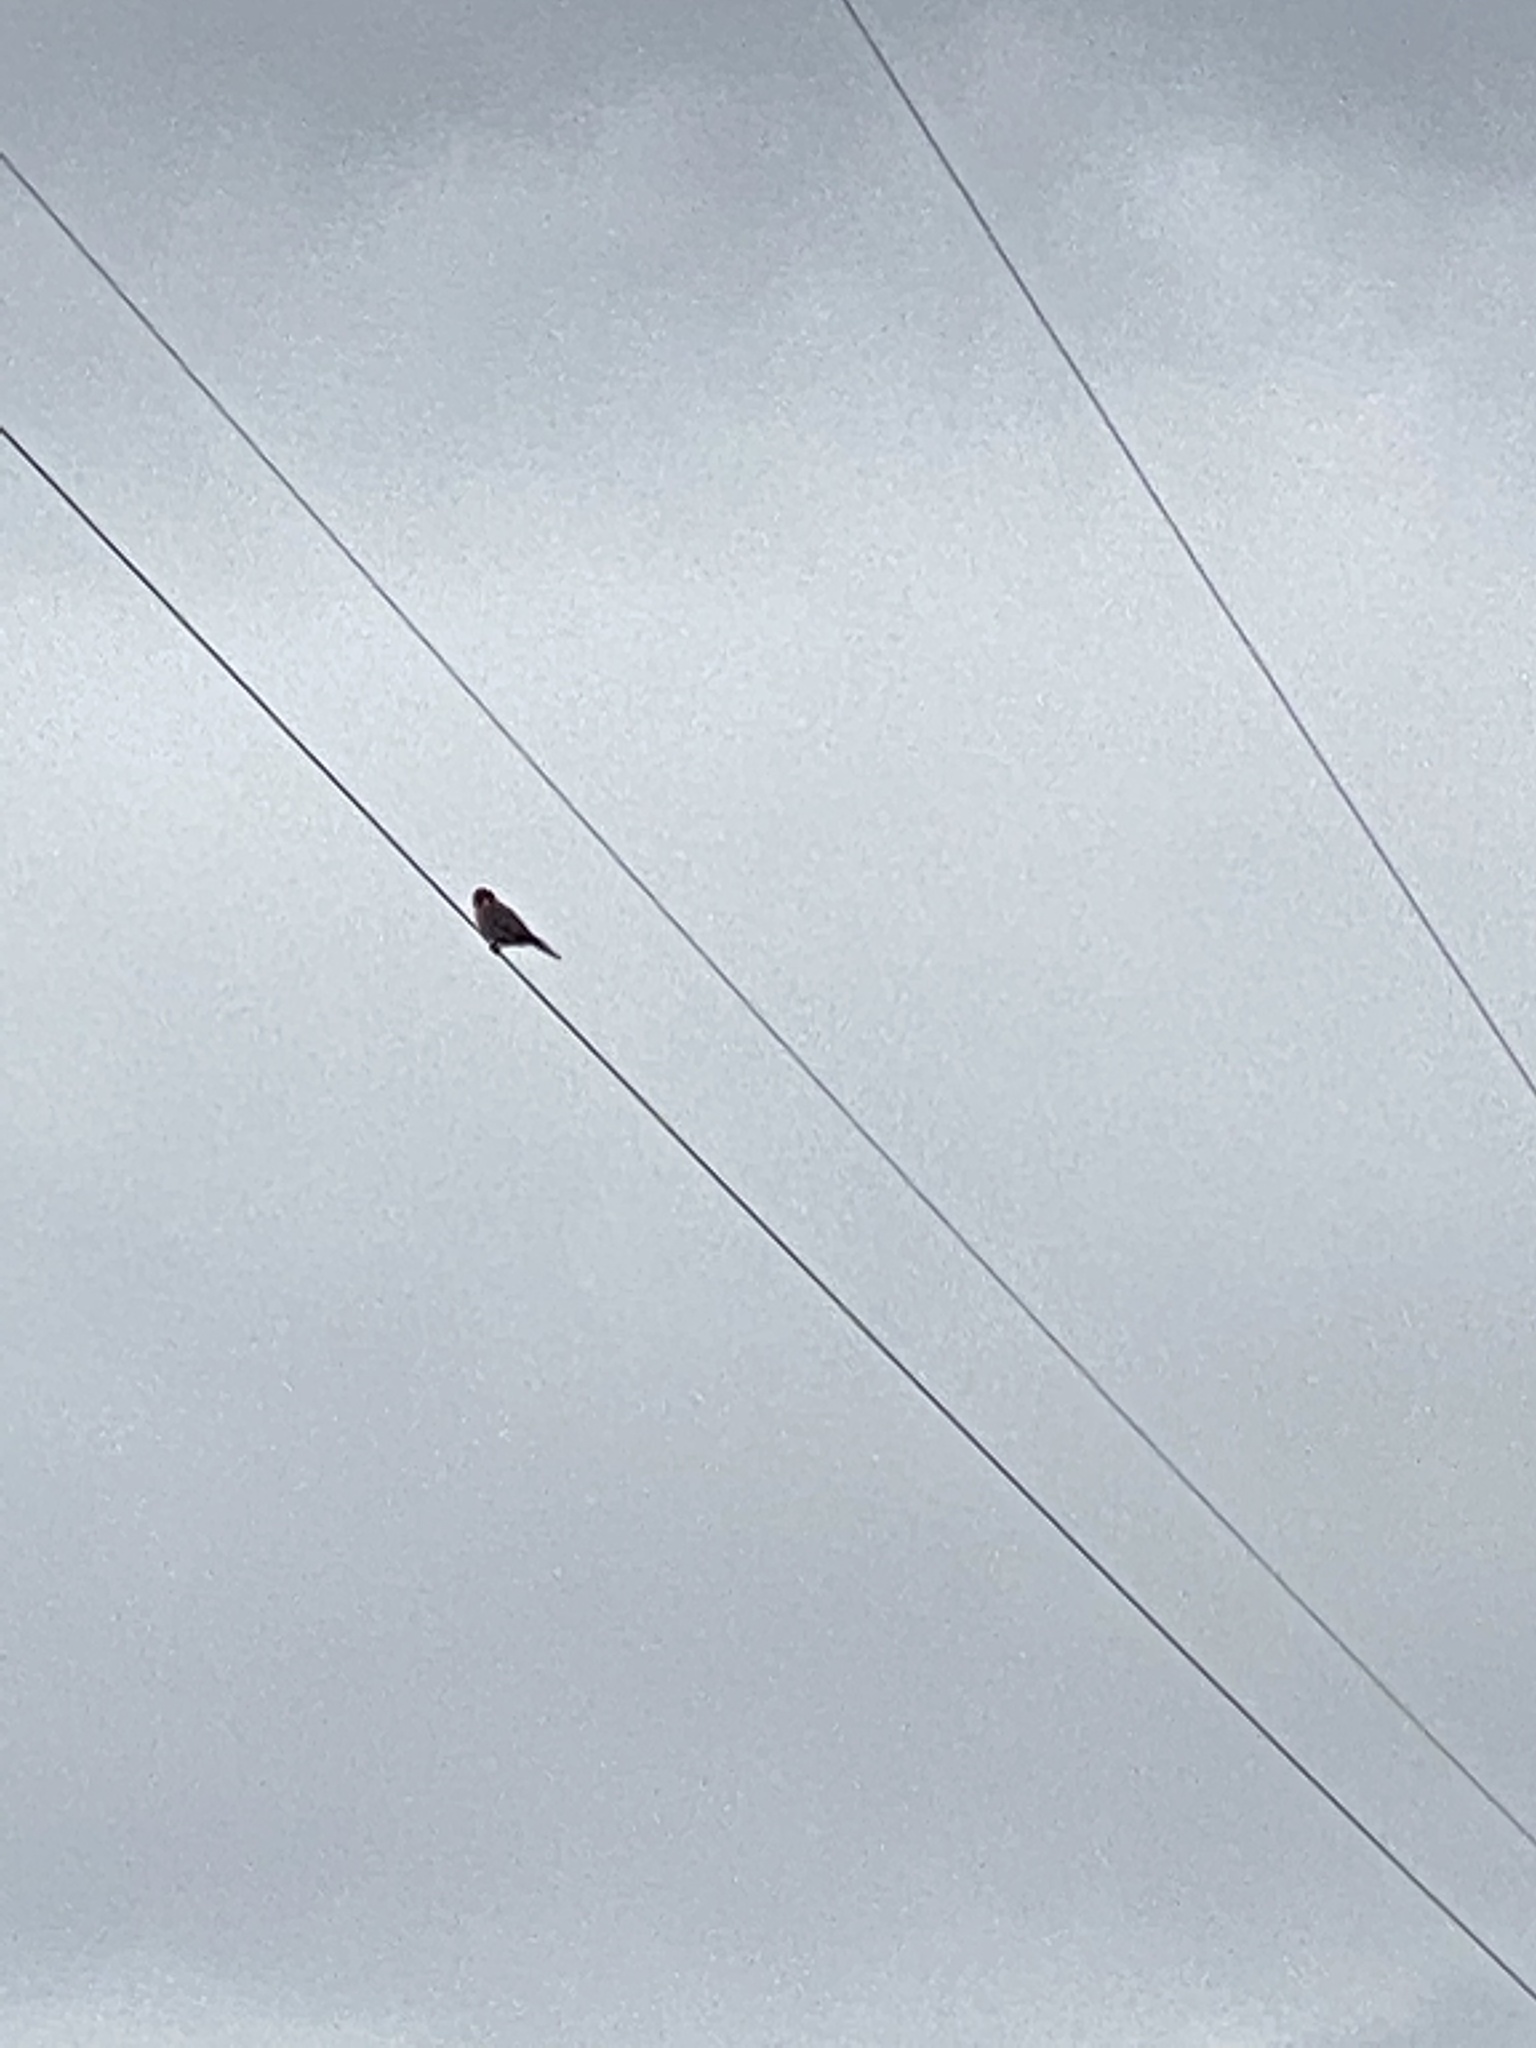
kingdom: Animalia
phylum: Chordata
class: Aves
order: Falconiformes
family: Falconidae
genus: Falco
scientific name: Falco sparverius
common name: American kestrel
